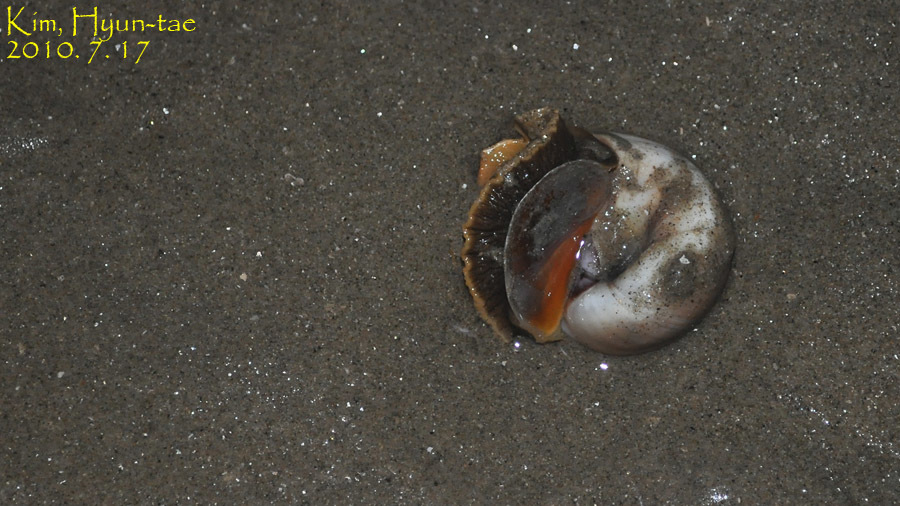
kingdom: Animalia
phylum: Mollusca
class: Gastropoda
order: Littorinimorpha
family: Naticidae
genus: Neverita
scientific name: Neverita didyma
